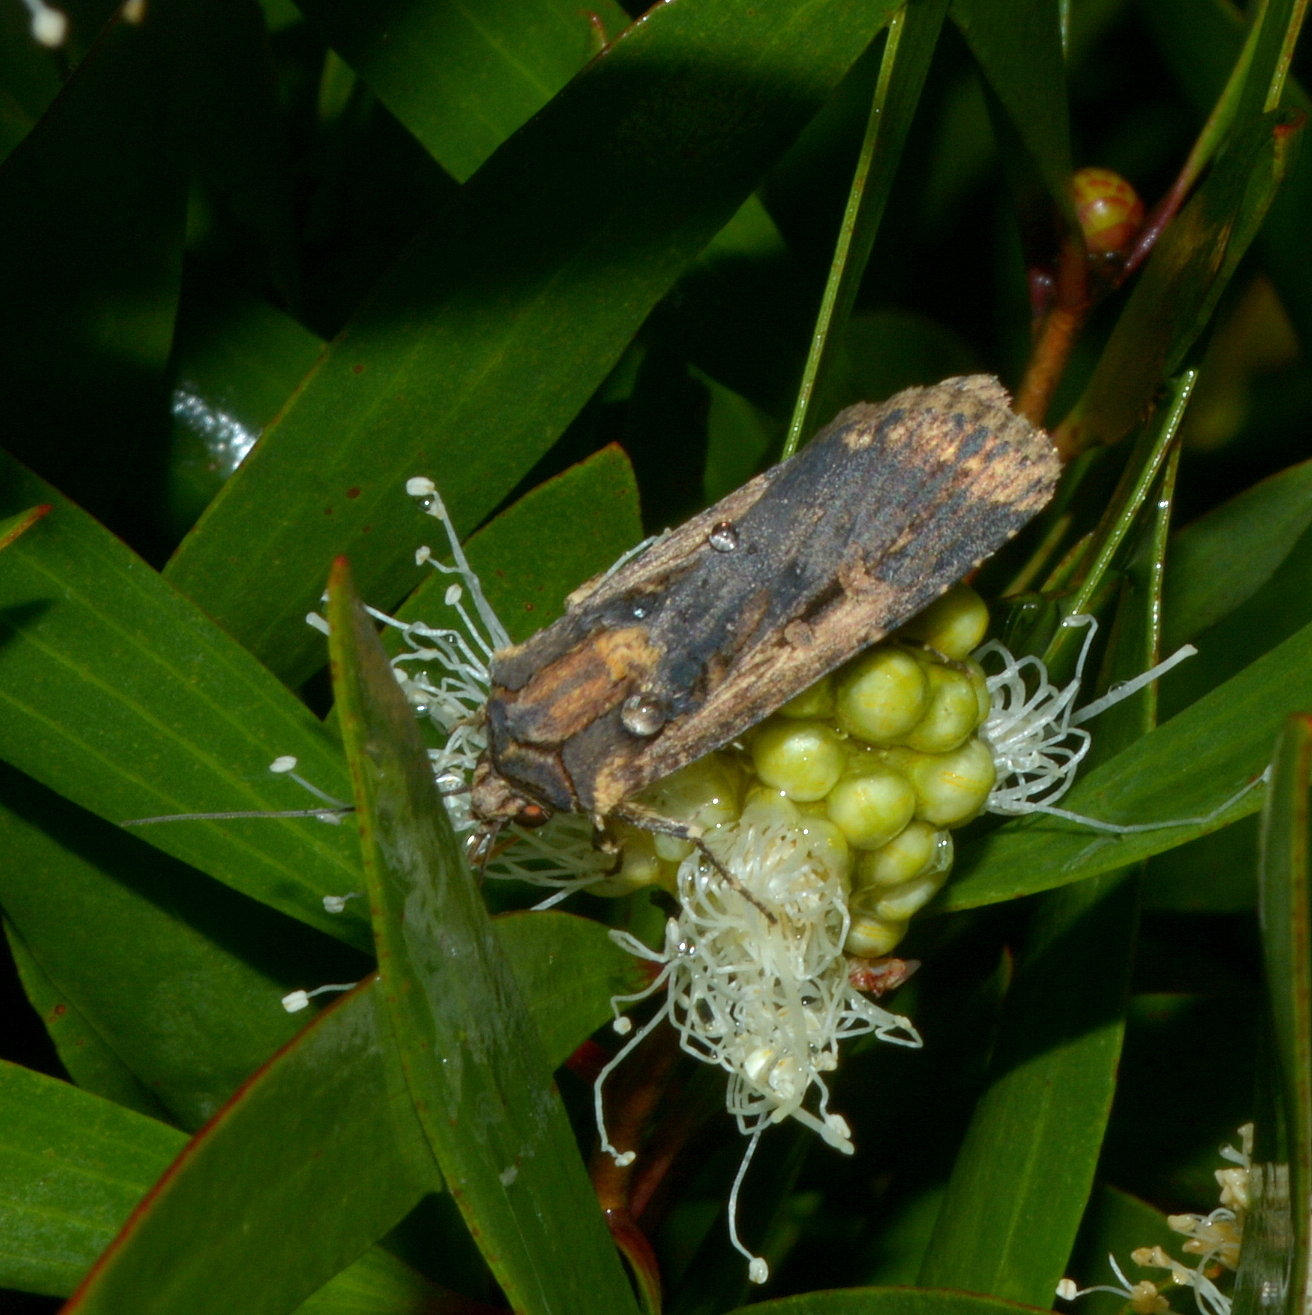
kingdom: Animalia
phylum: Arthropoda
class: Insecta
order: Lepidoptera
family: Noctuidae
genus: Feltia
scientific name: Feltia subterranea
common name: Granulate cutworm
